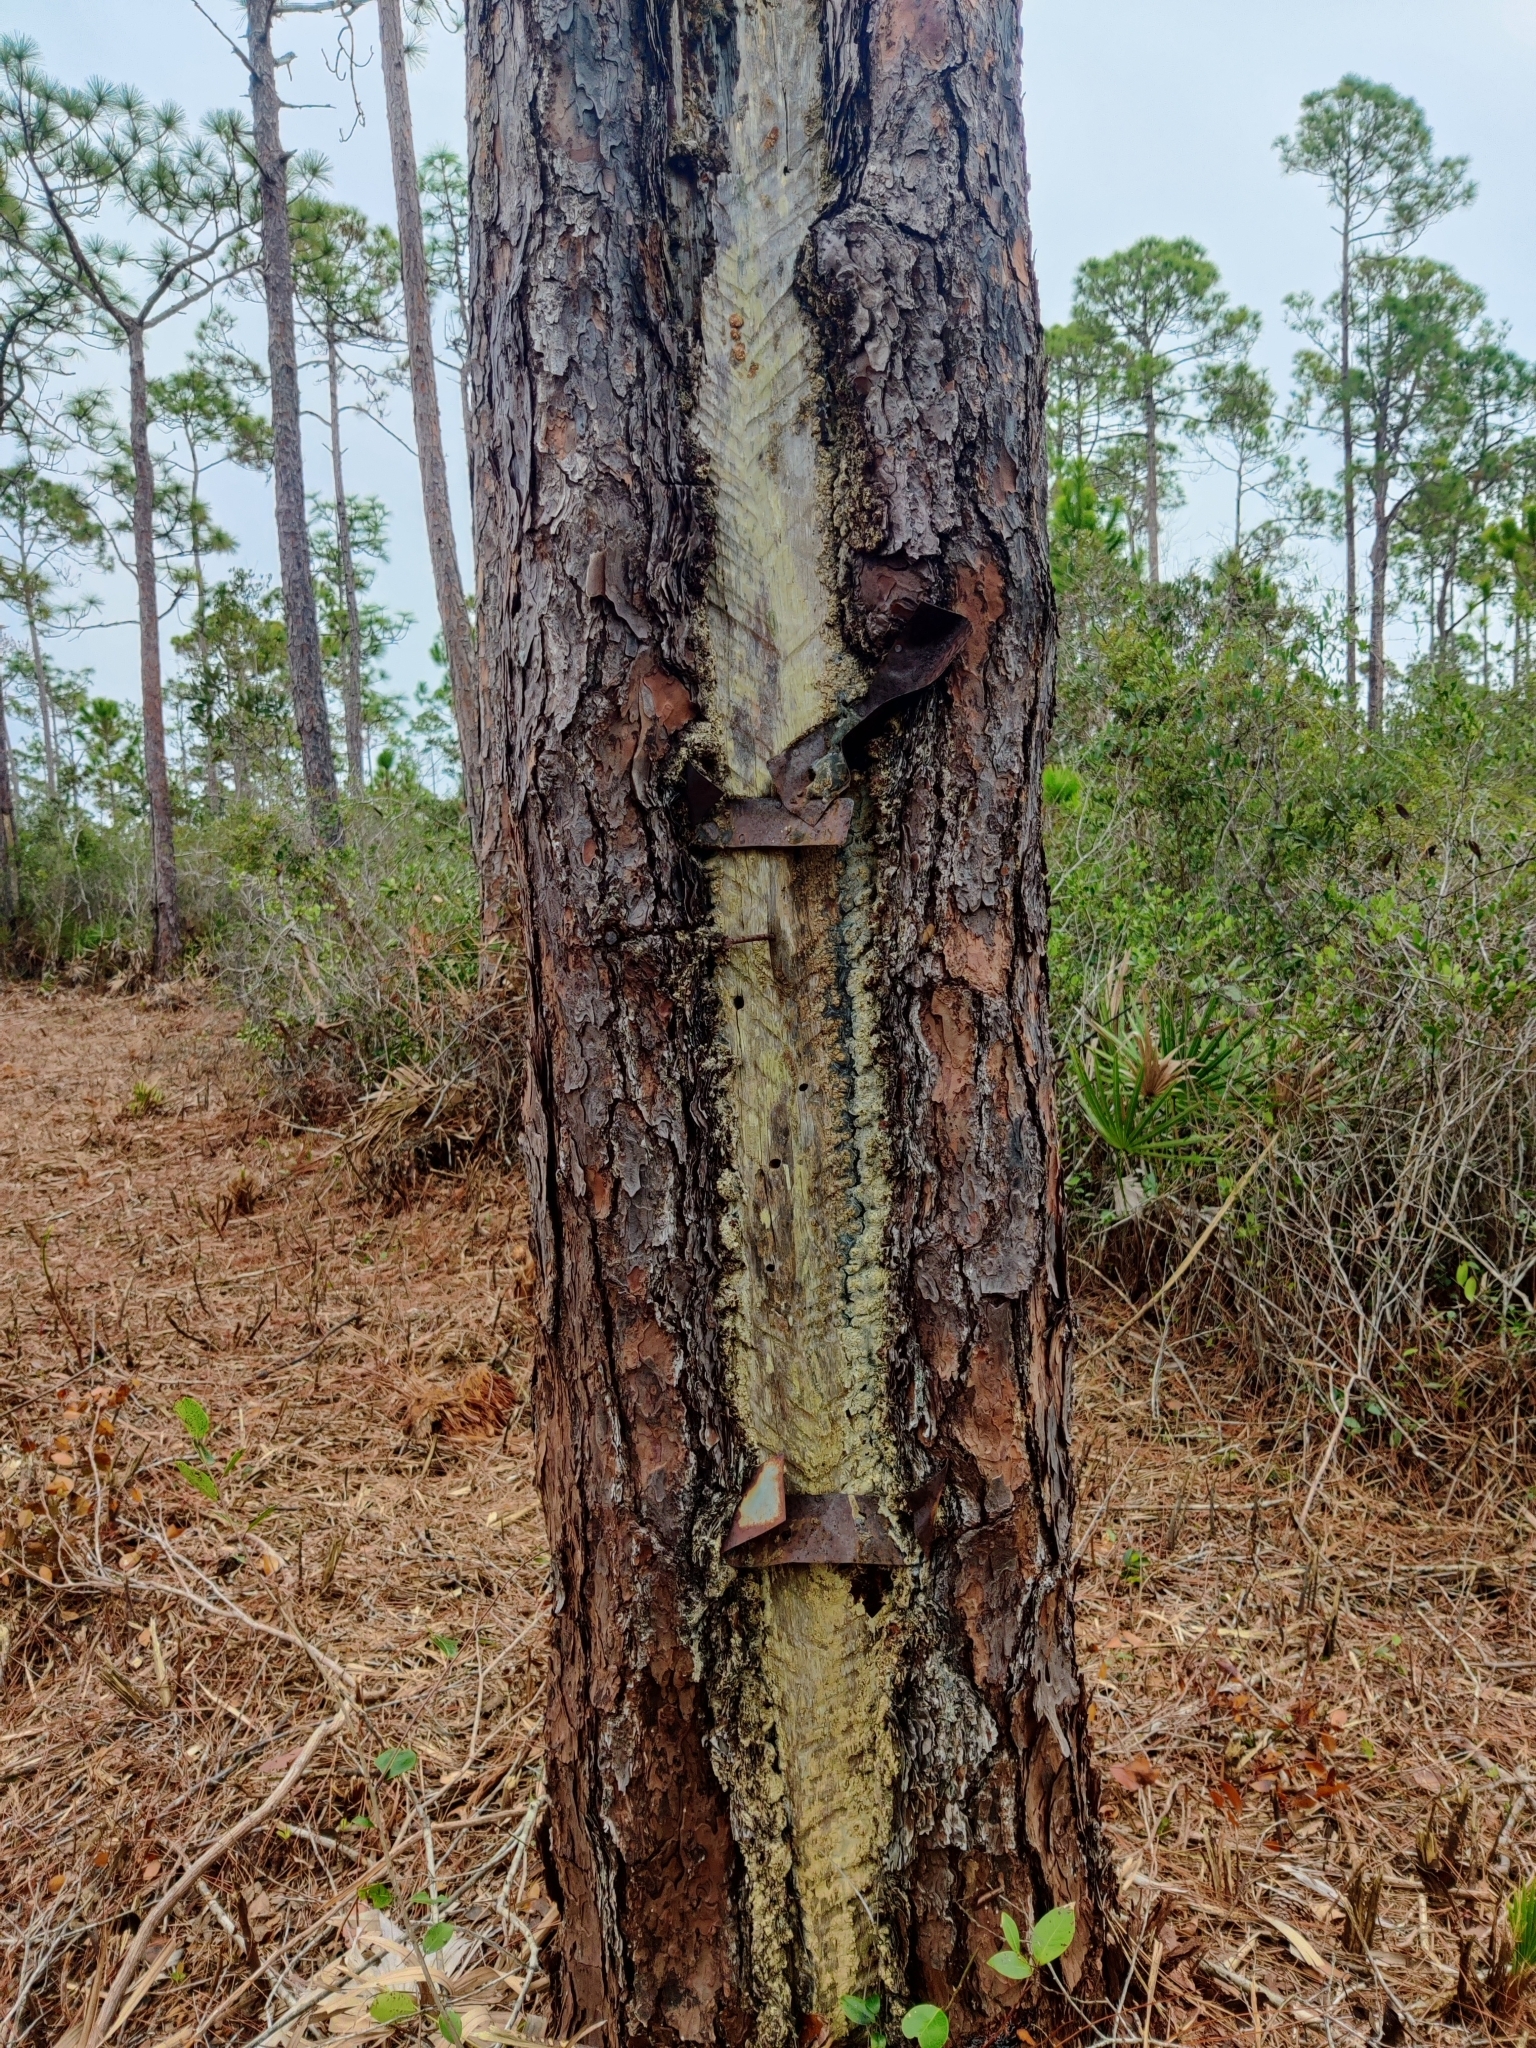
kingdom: Plantae
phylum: Tracheophyta
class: Pinopsida
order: Pinales
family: Pinaceae
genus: Pinus
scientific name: Pinus palustris
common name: Longleaf pine
